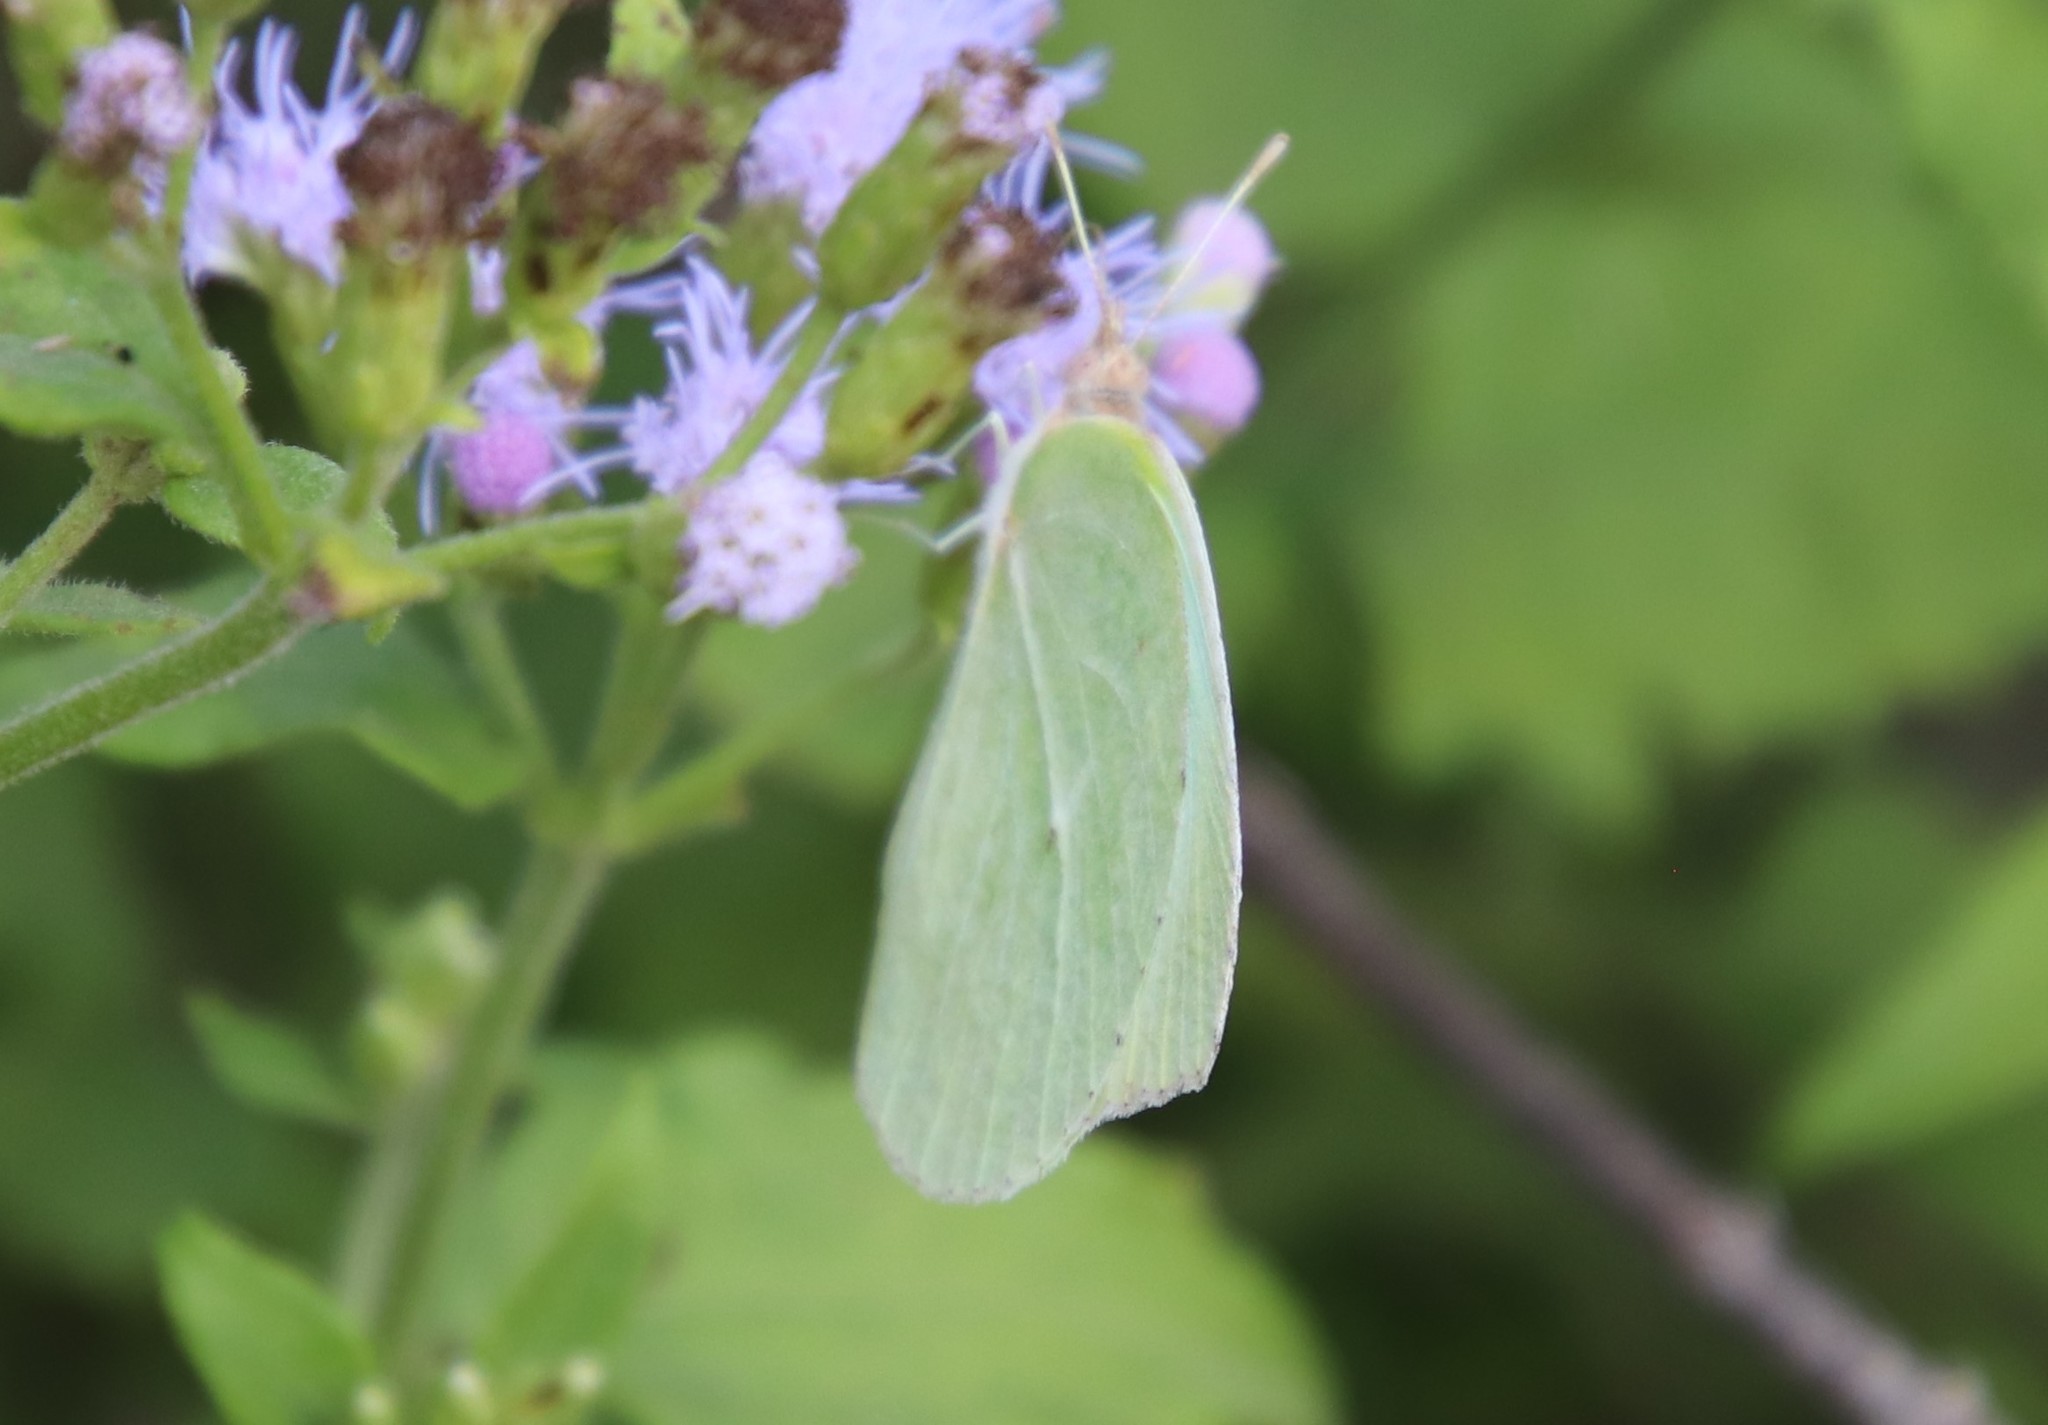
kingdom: Animalia
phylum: Arthropoda
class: Insecta
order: Lepidoptera
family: Pieridae
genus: Kricogonia
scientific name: Kricogonia lyside
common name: Guayacan sulphur,
